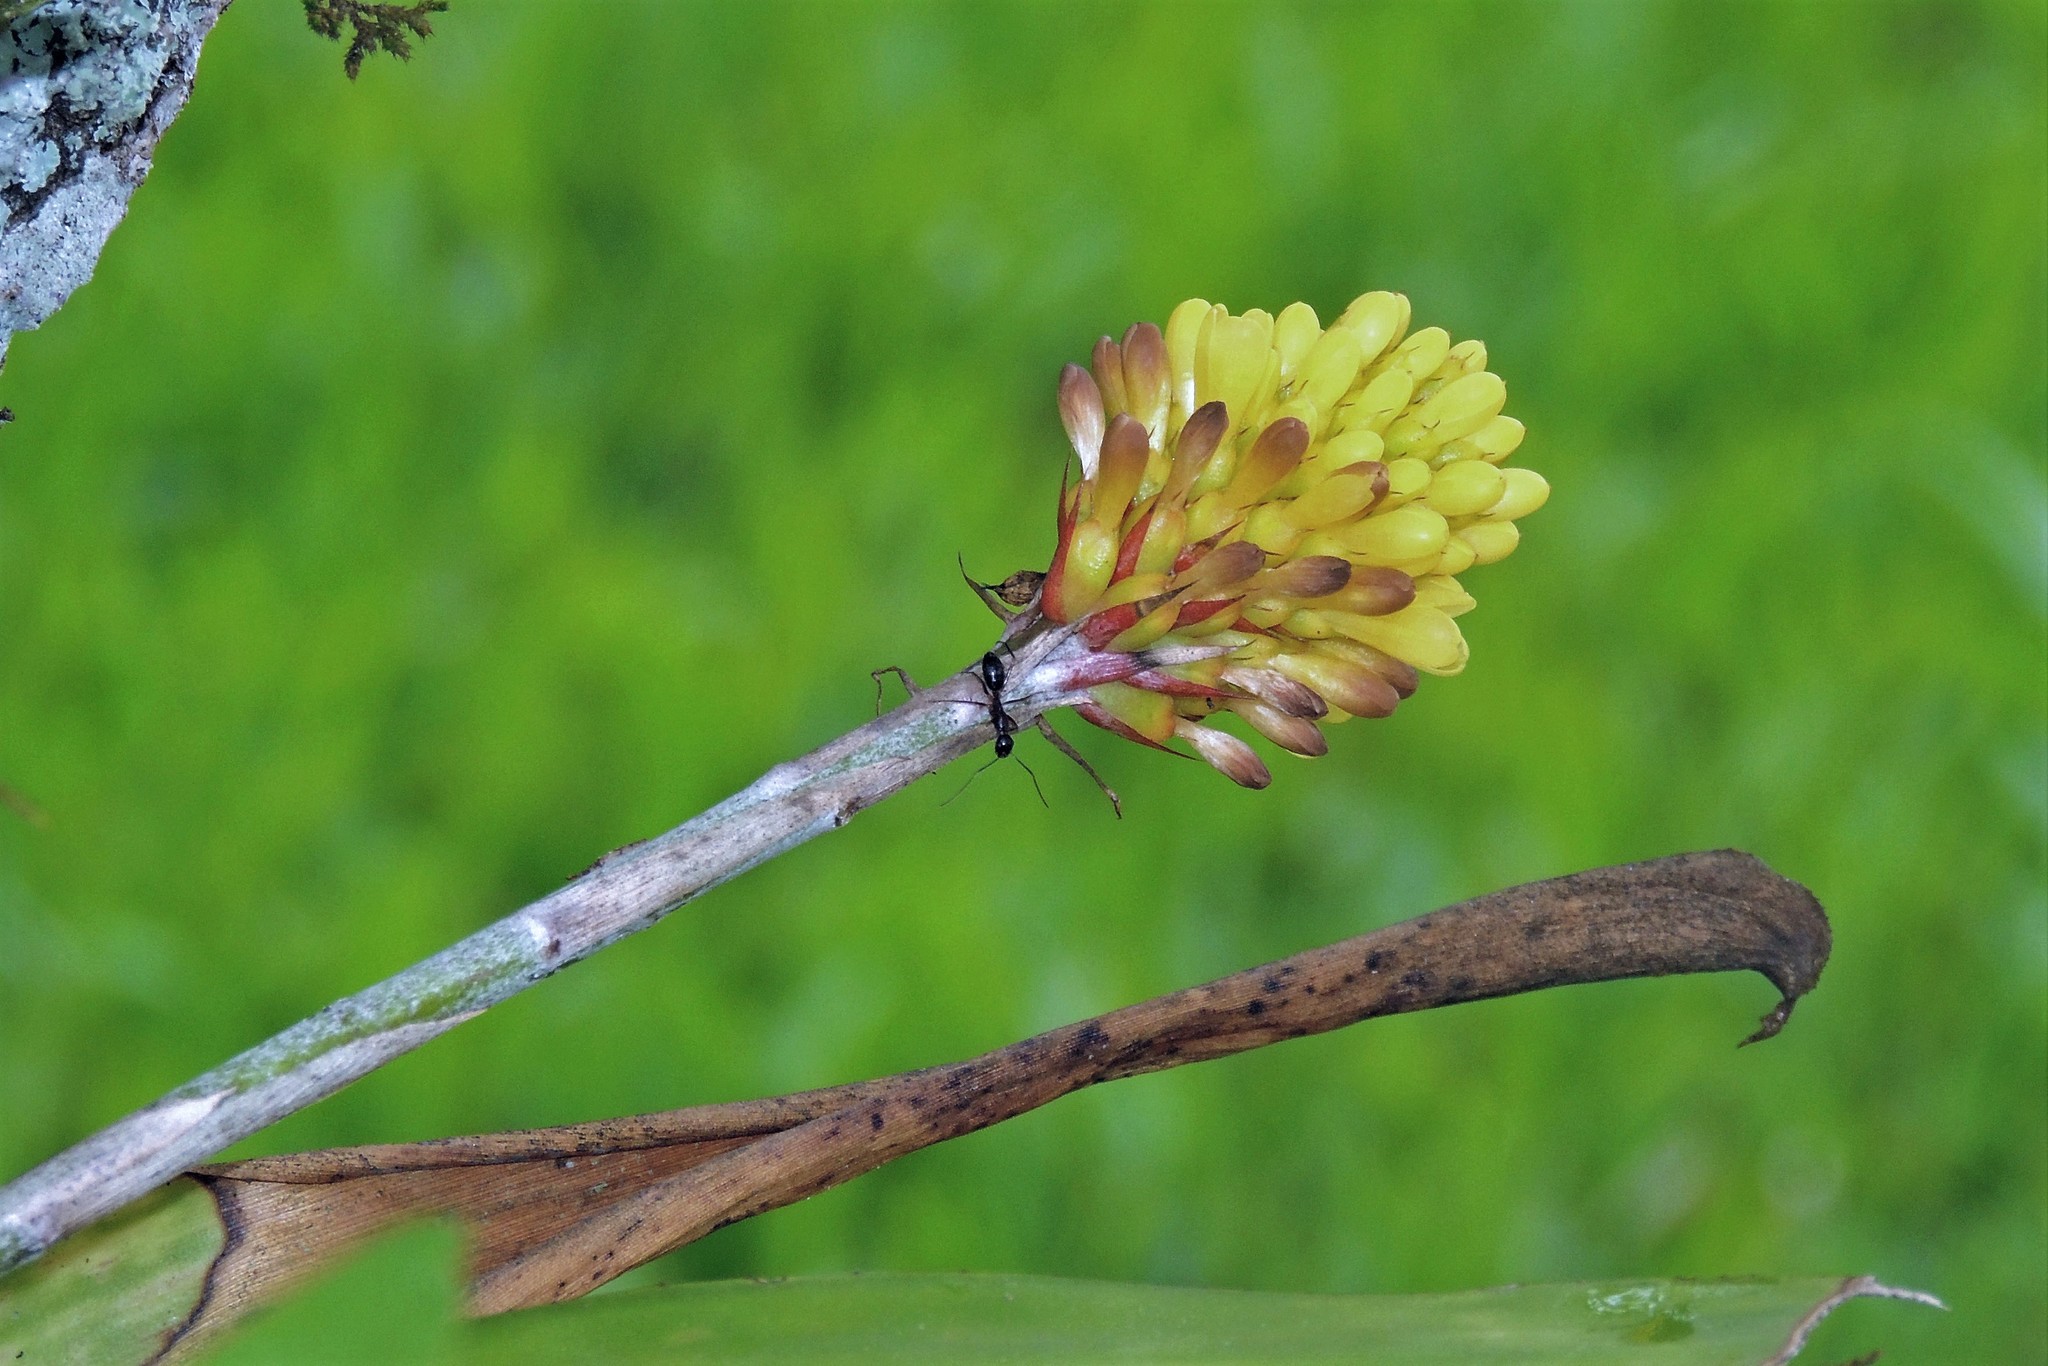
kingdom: Plantae
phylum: Tracheophyta
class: Liliopsida
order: Poales
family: Bromeliaceae
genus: Aechmea
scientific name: Aechmea calyculata
